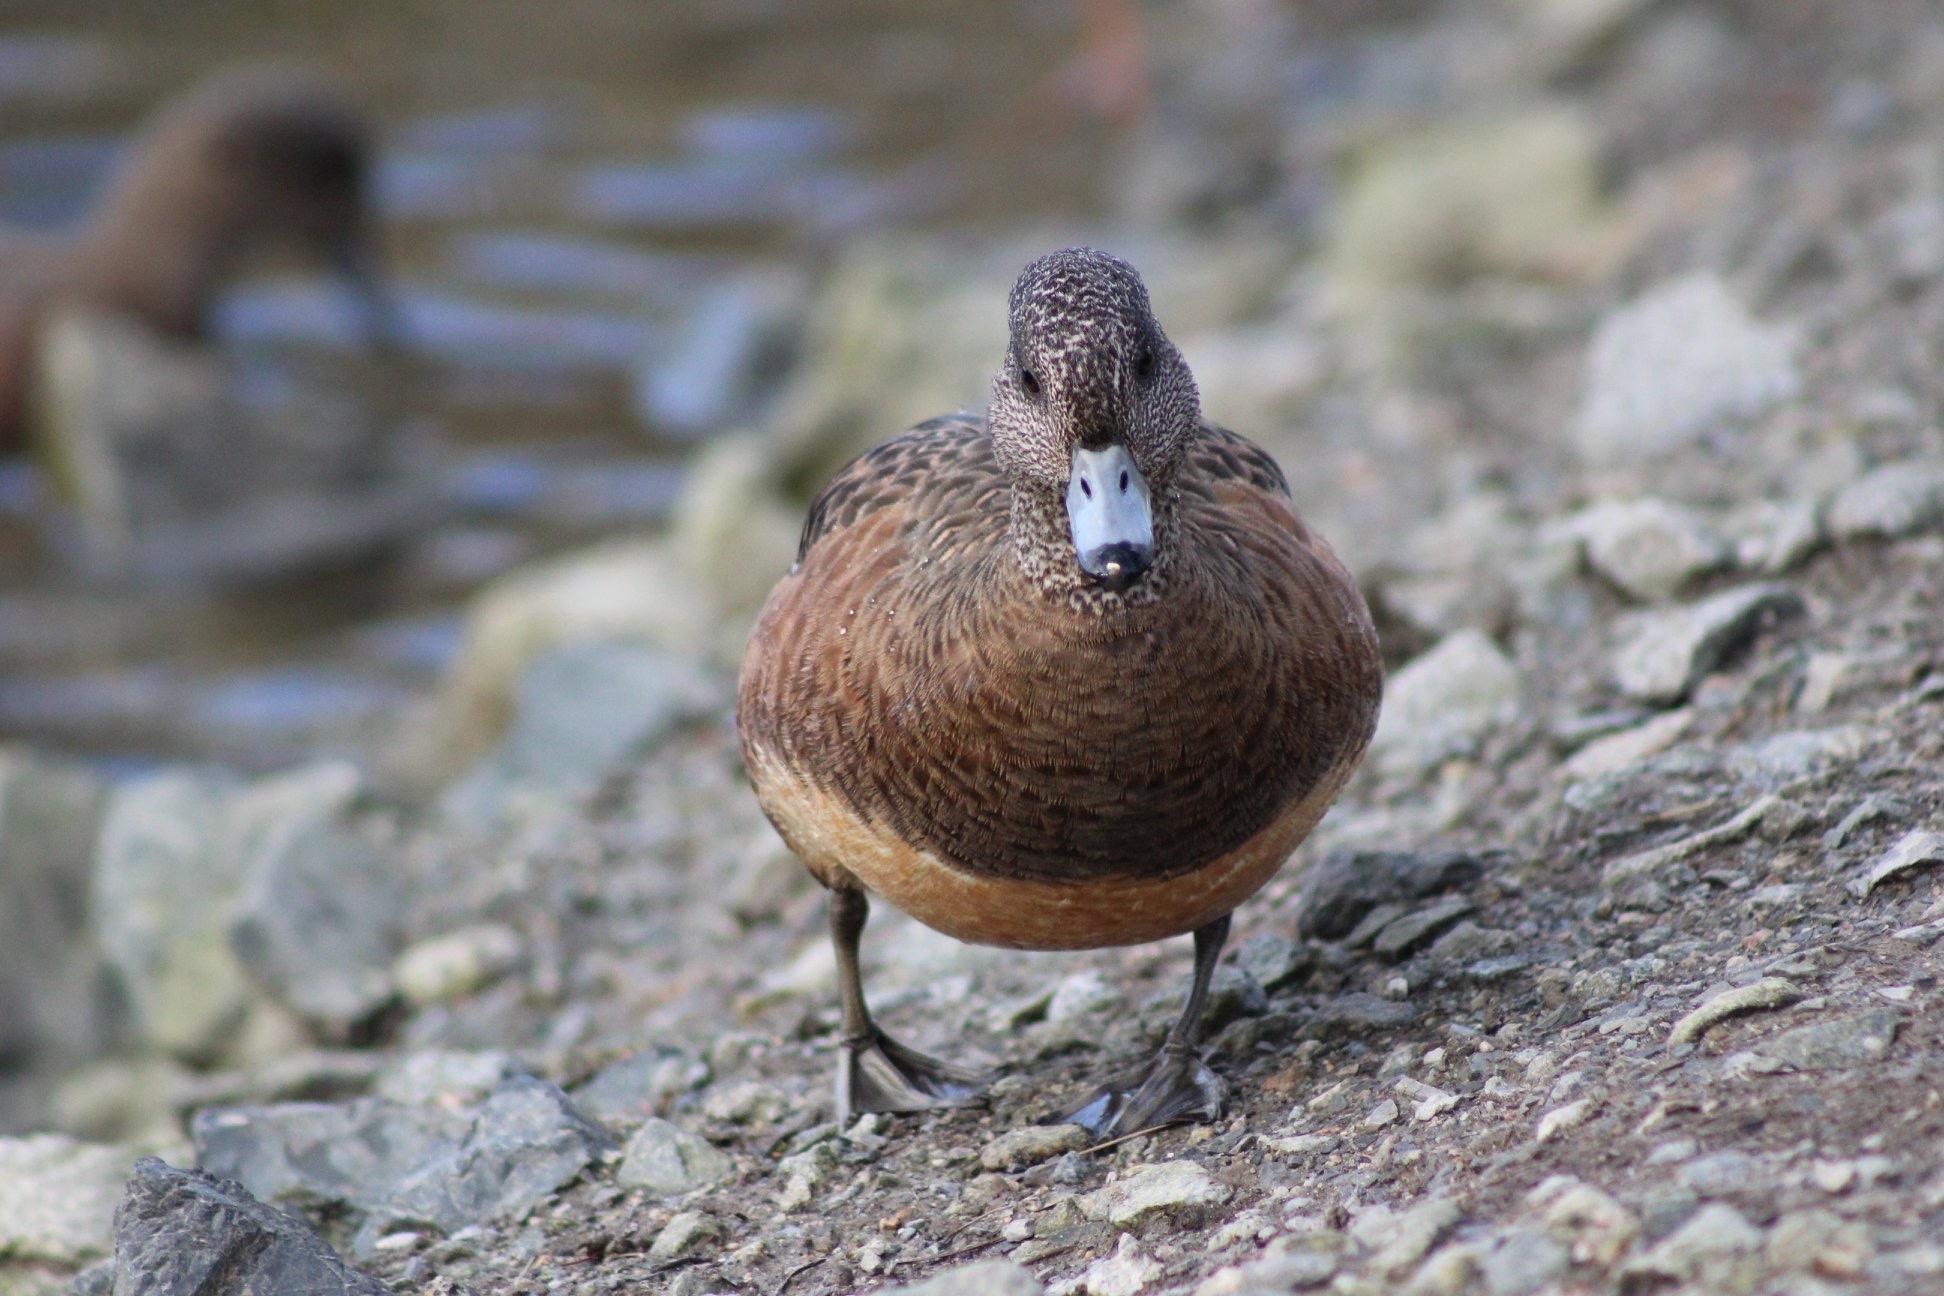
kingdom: Animalia
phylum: Chordata
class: Aves
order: Anseriformes
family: Anatidae
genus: Mareca
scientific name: Mareca americana
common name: American wigeon
